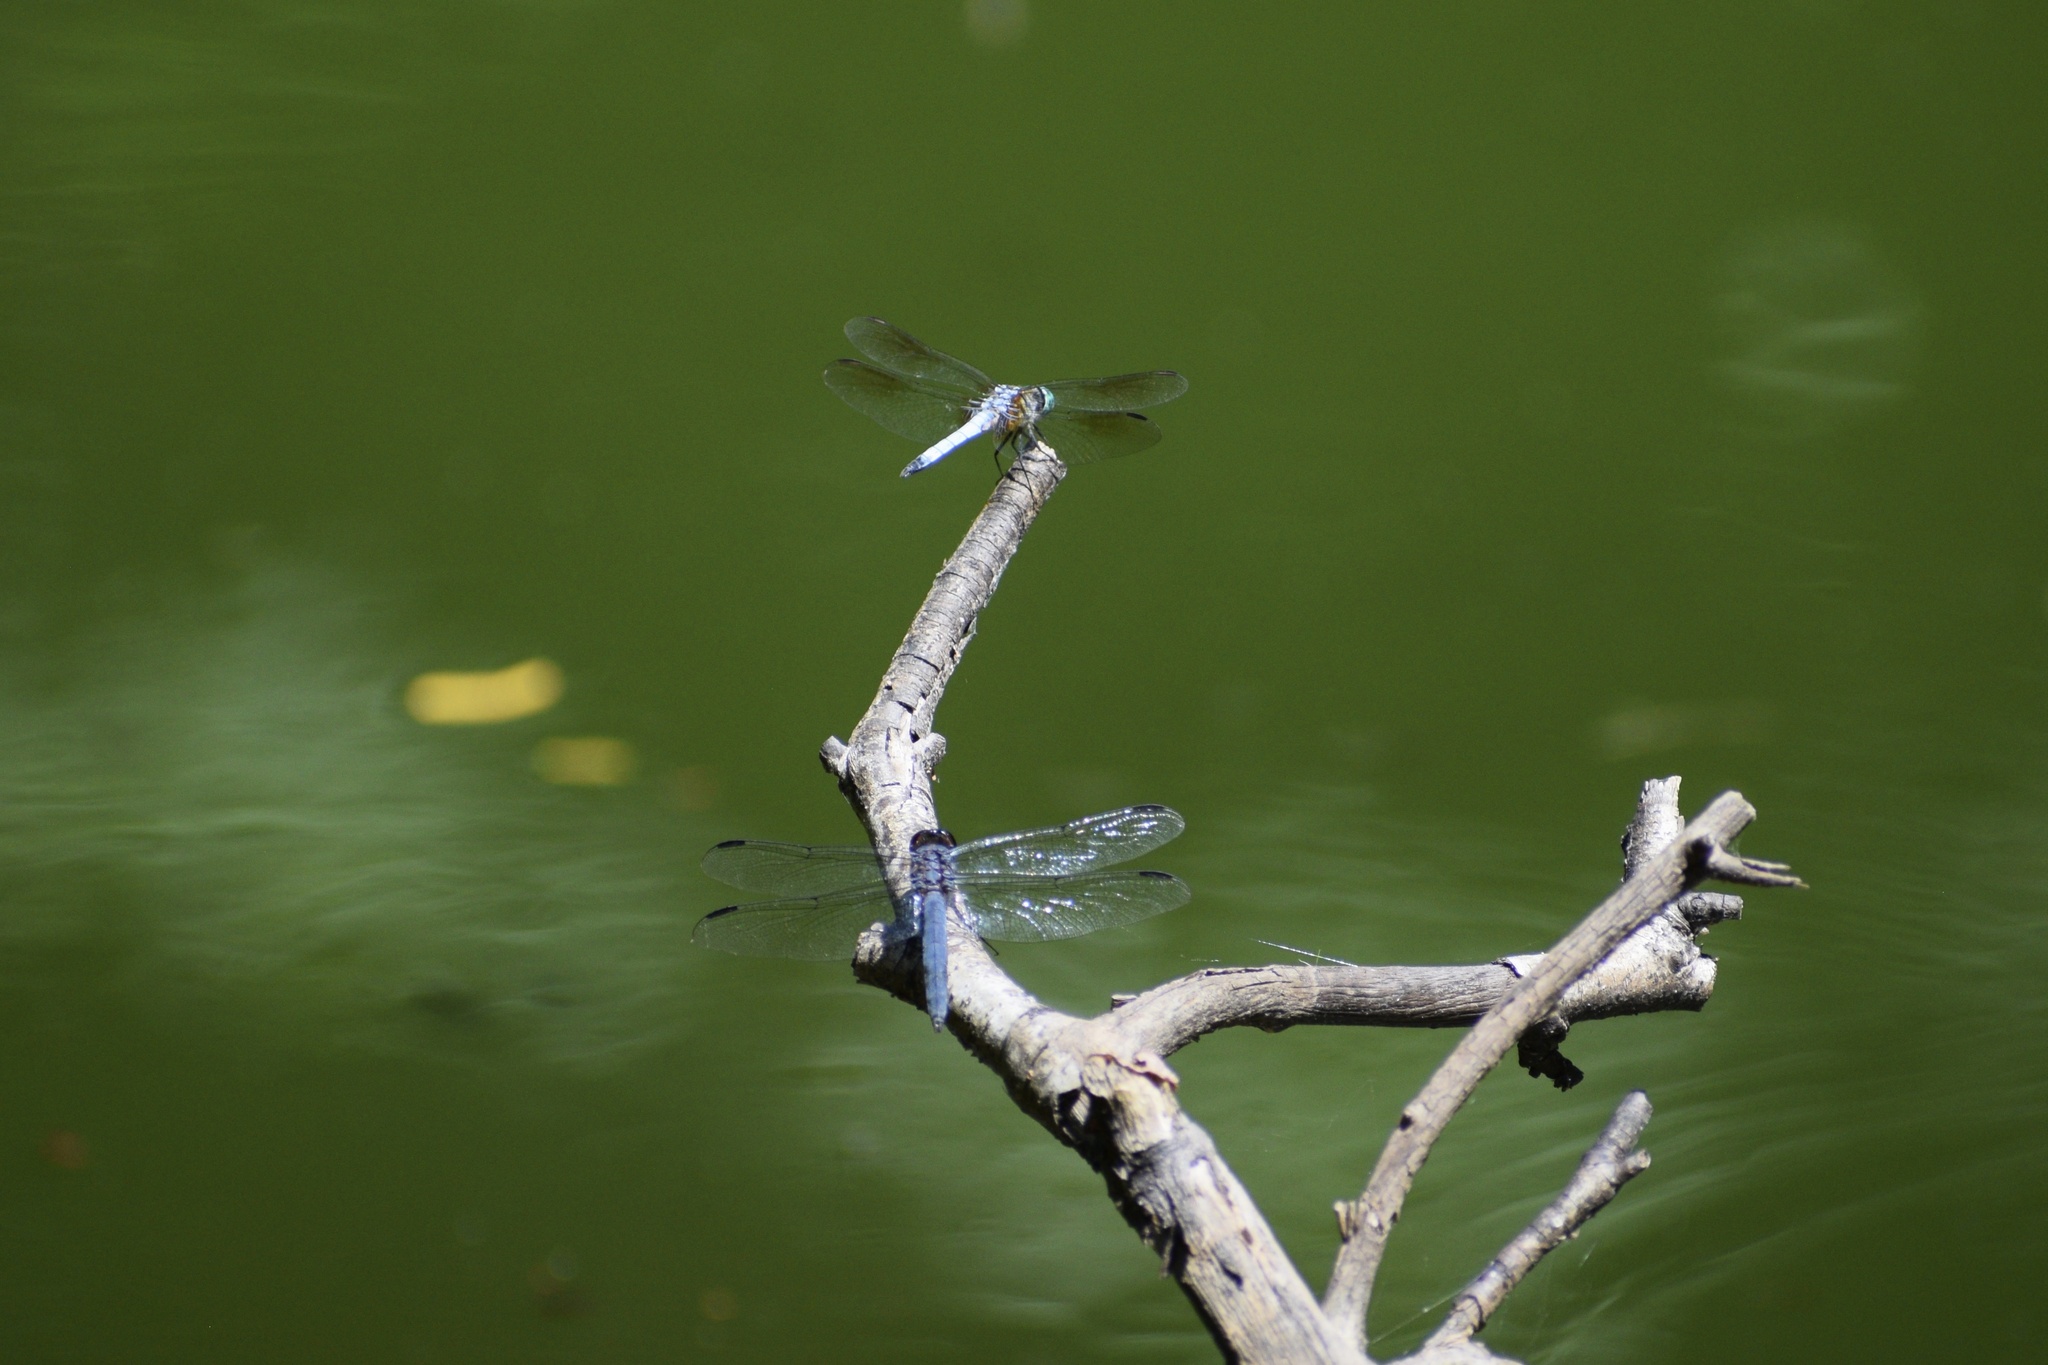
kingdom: Animalia
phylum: Arthropoda
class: Insecta
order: Odonata
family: Libellulidae
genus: Libellula
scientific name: Libellula incesta
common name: Slaty skimmer
